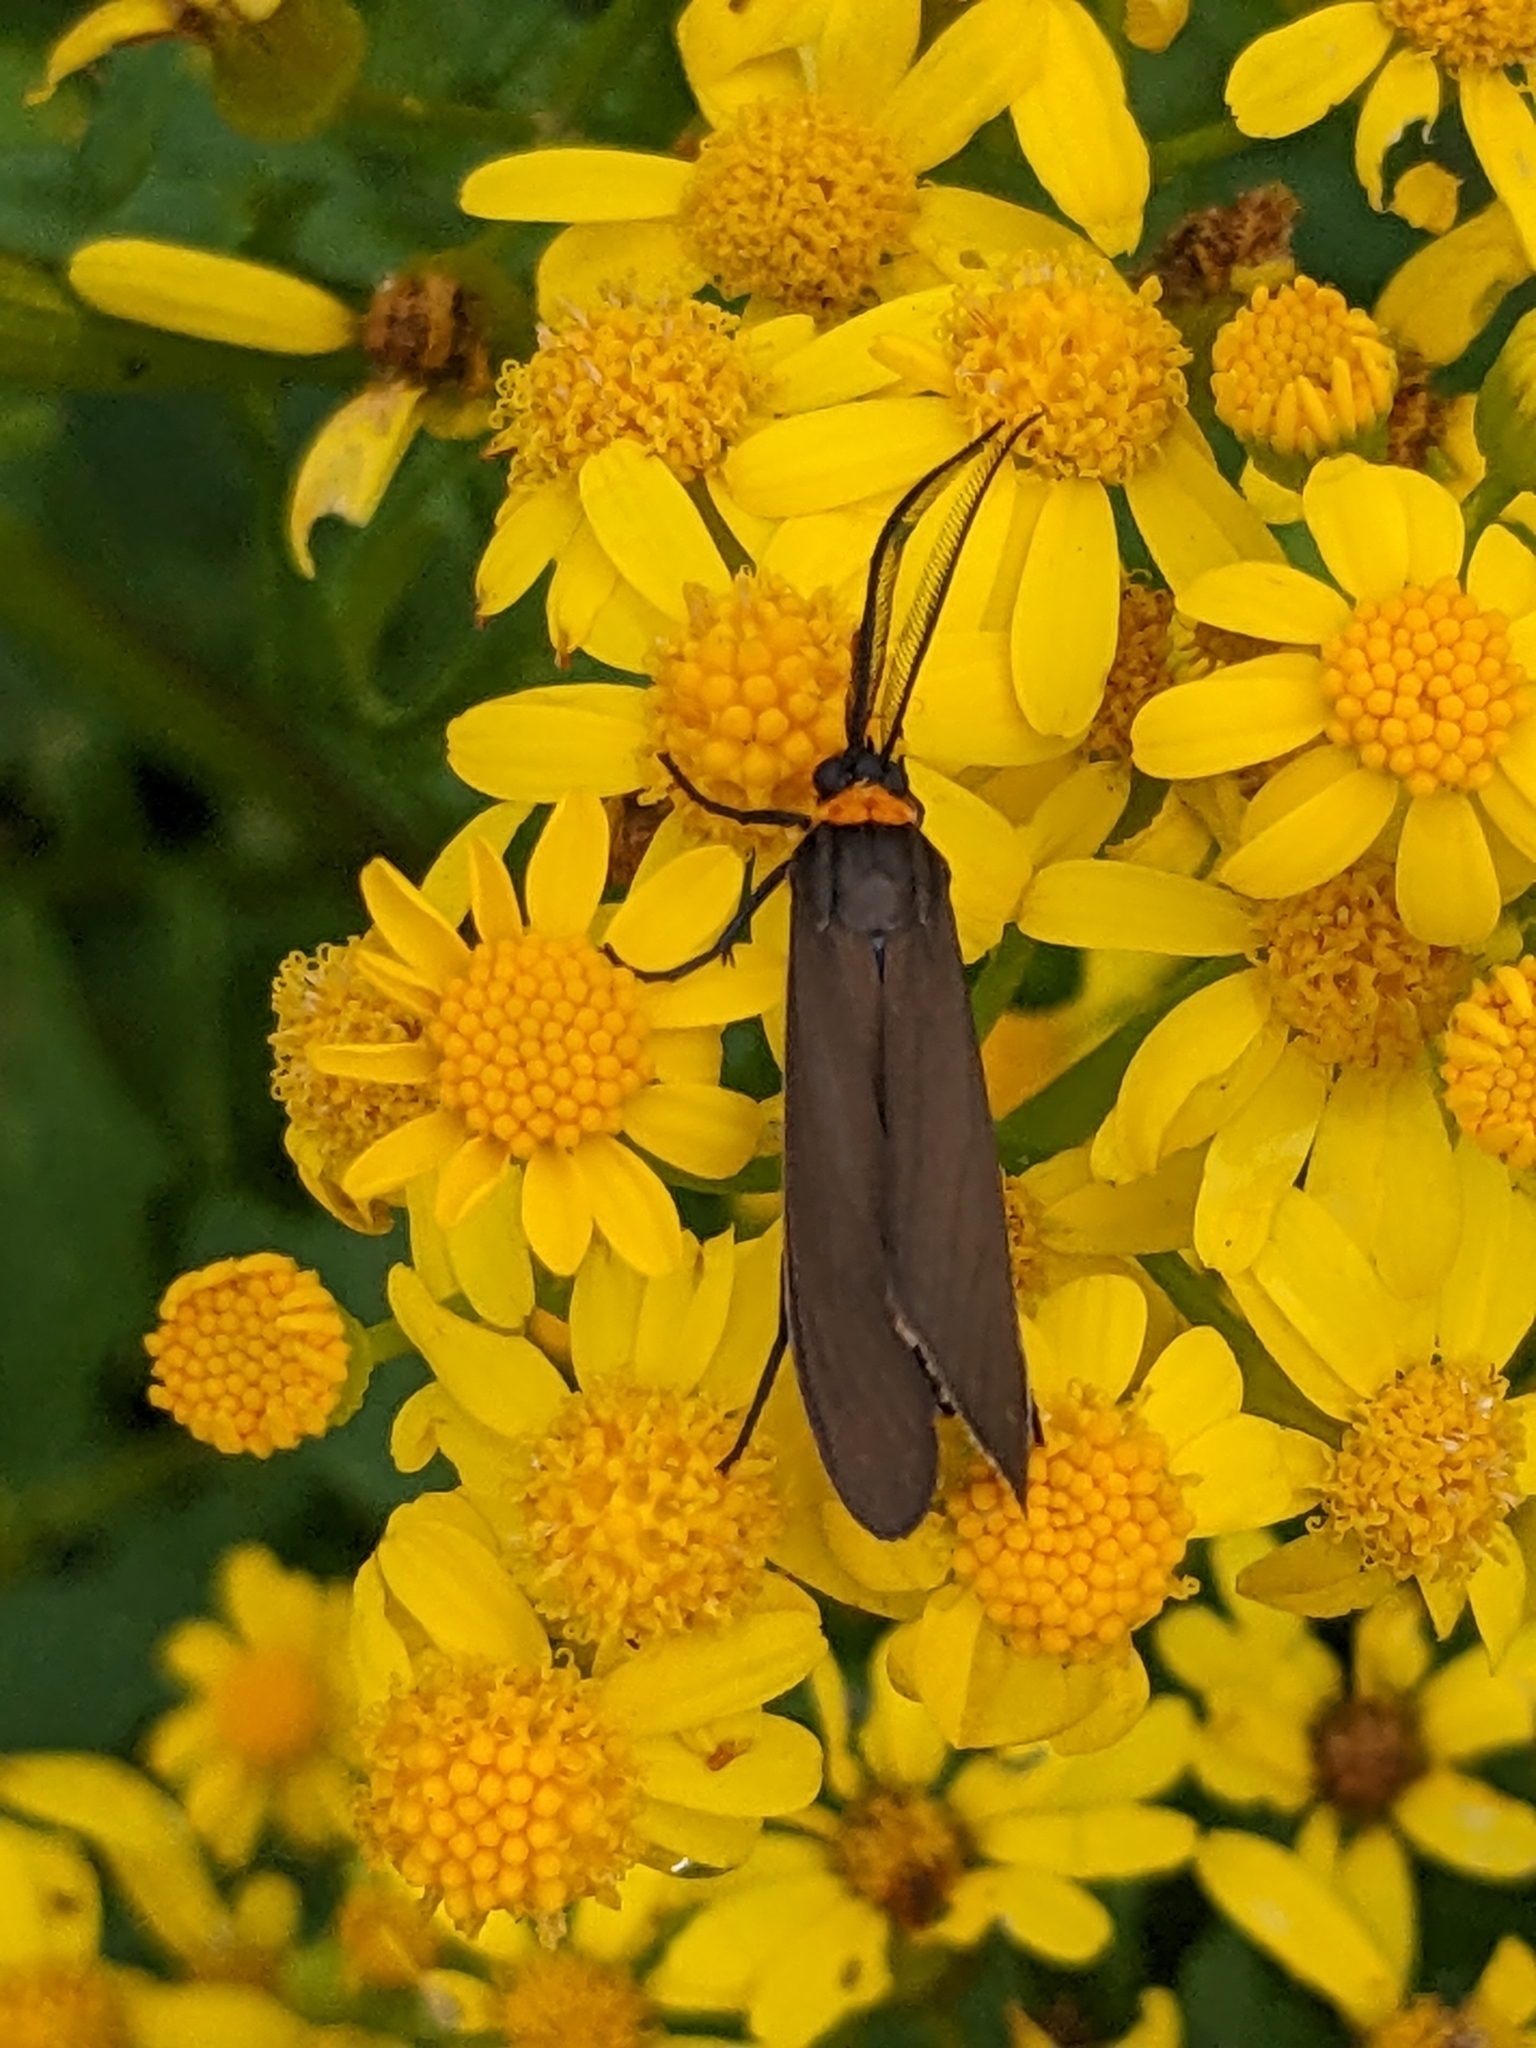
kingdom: Animalia
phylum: Arthropoda
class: Insecta
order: Lepidoptera
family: Erebidae
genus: Cisseps
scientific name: Cisseps fulvicollis
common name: Yellow-collared scape moth
